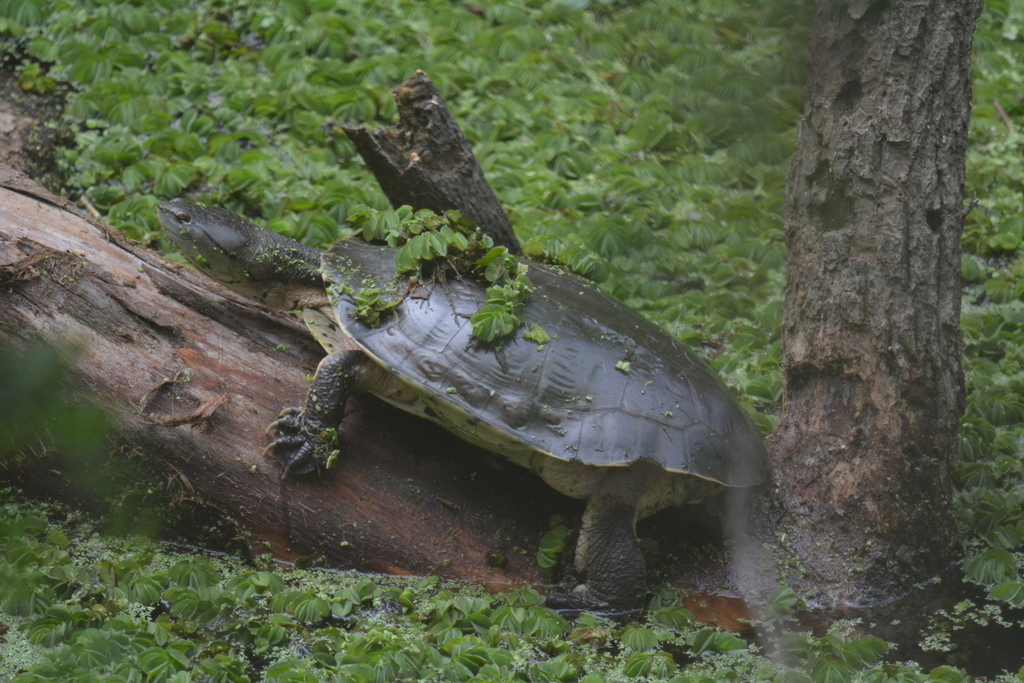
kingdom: Animalia
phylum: Chordata
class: Testudines
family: Chelidae
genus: Phrynops
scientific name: Phrynops hilarii
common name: Side-necked turtle of saint hillaire
